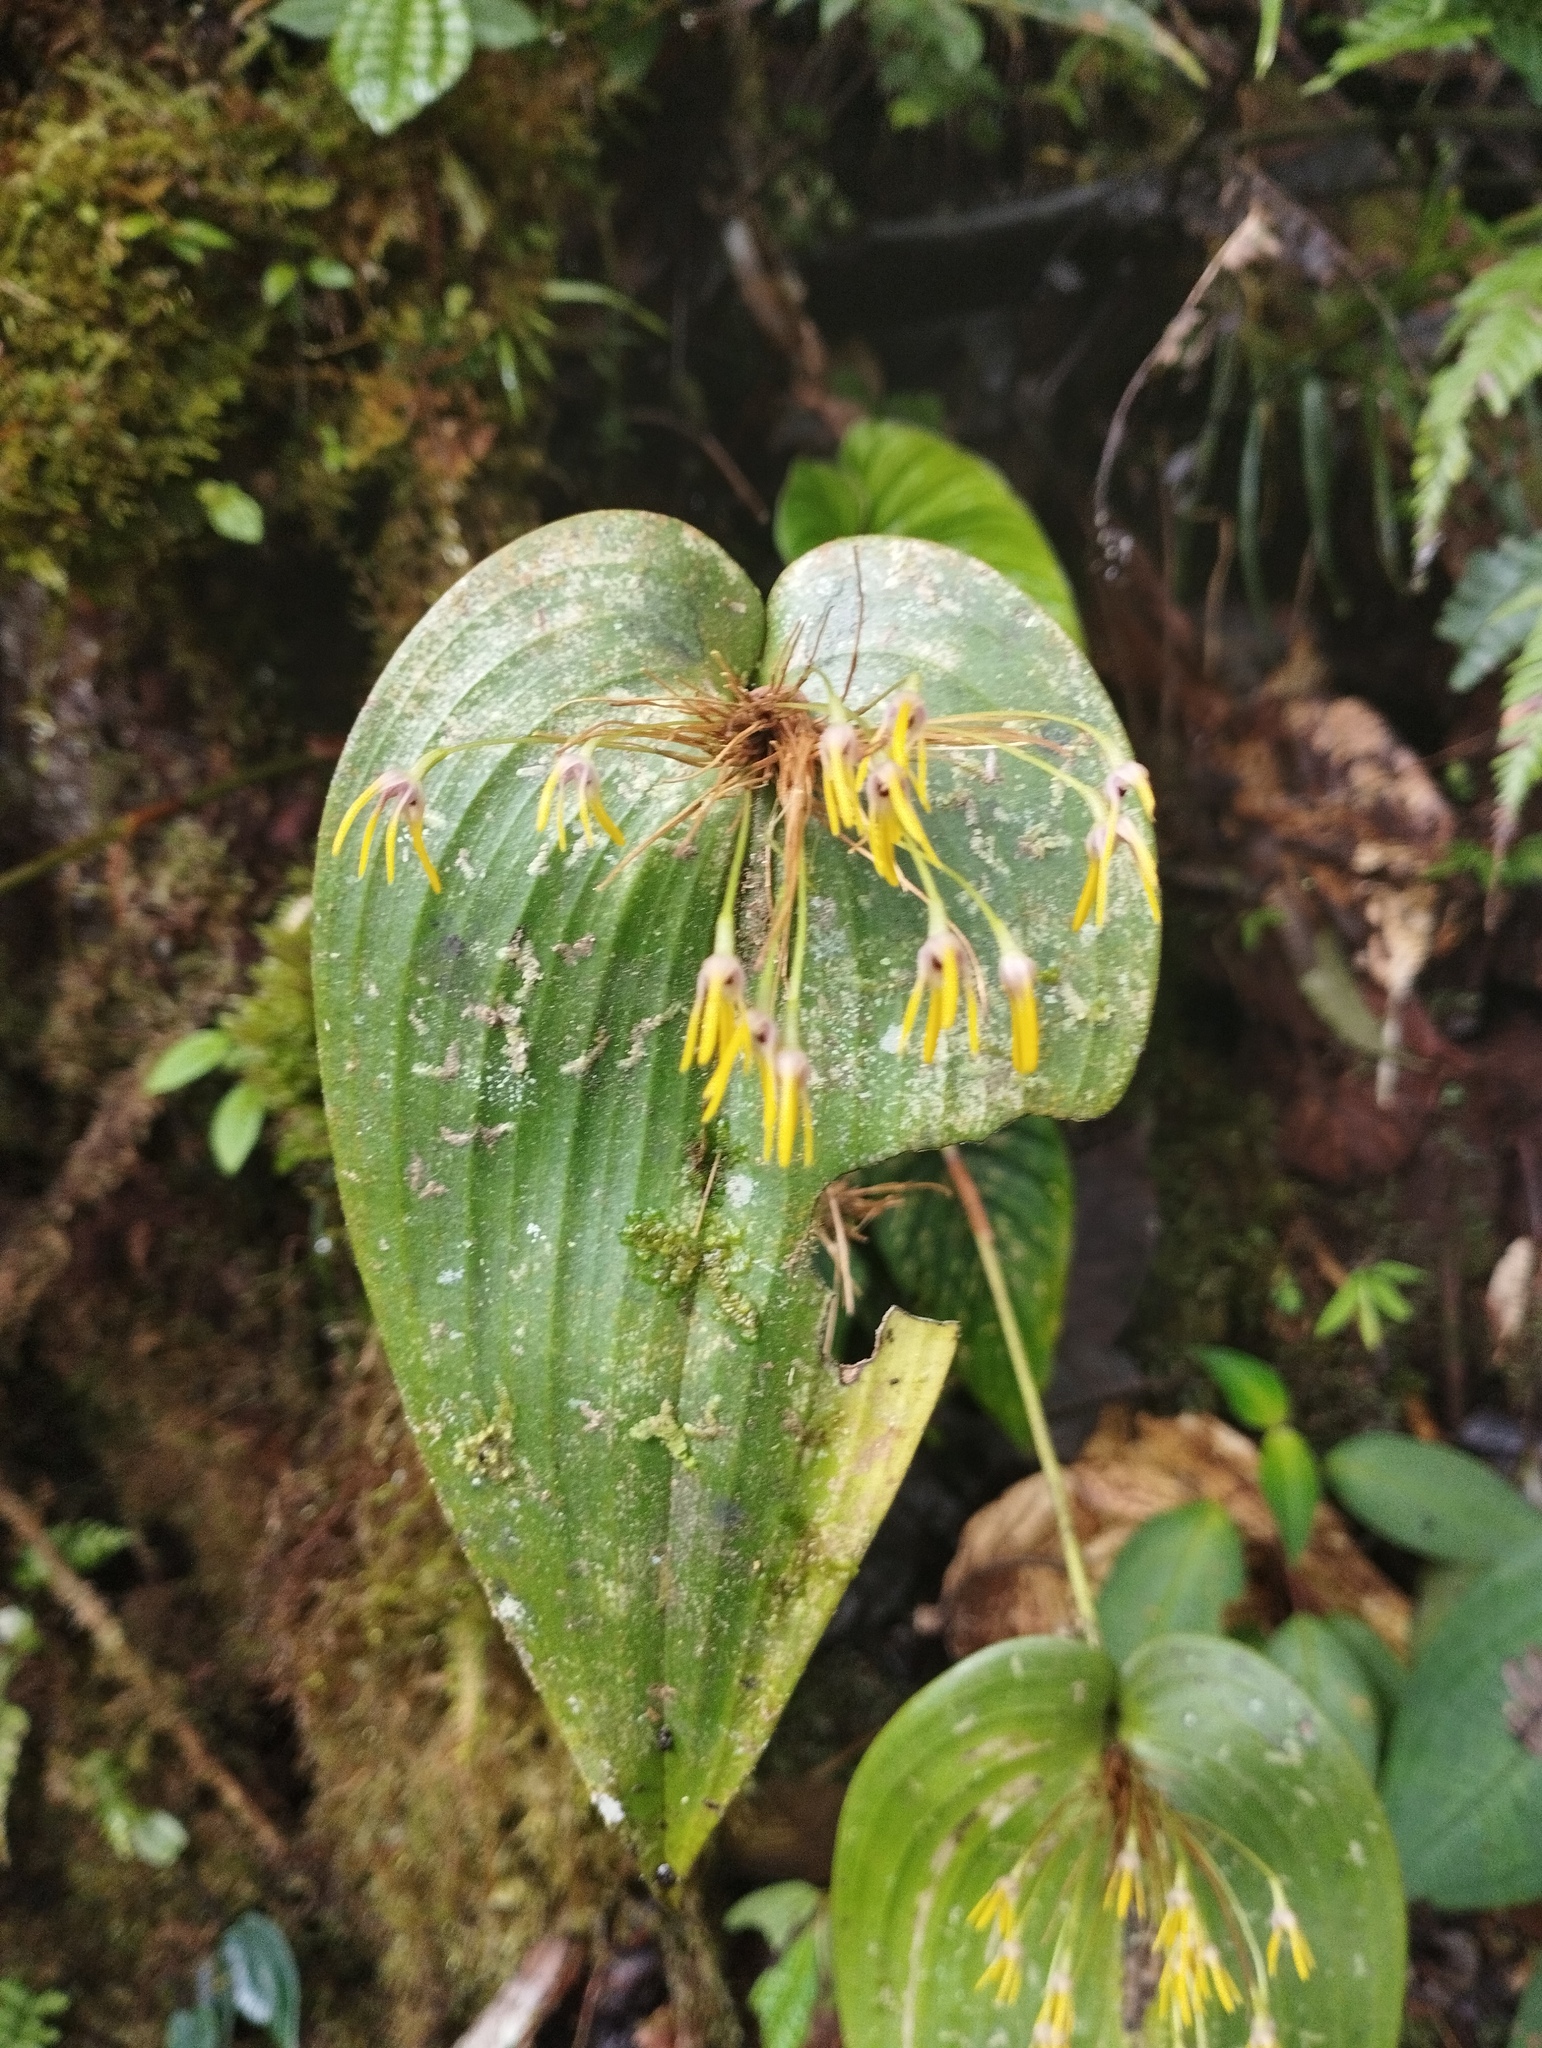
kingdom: Plantae
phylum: Tracheophyta
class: Liliopsida
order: Asparagales
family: Orchidaceae
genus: Pleurothallis
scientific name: Pleurothallis dunstervillei
